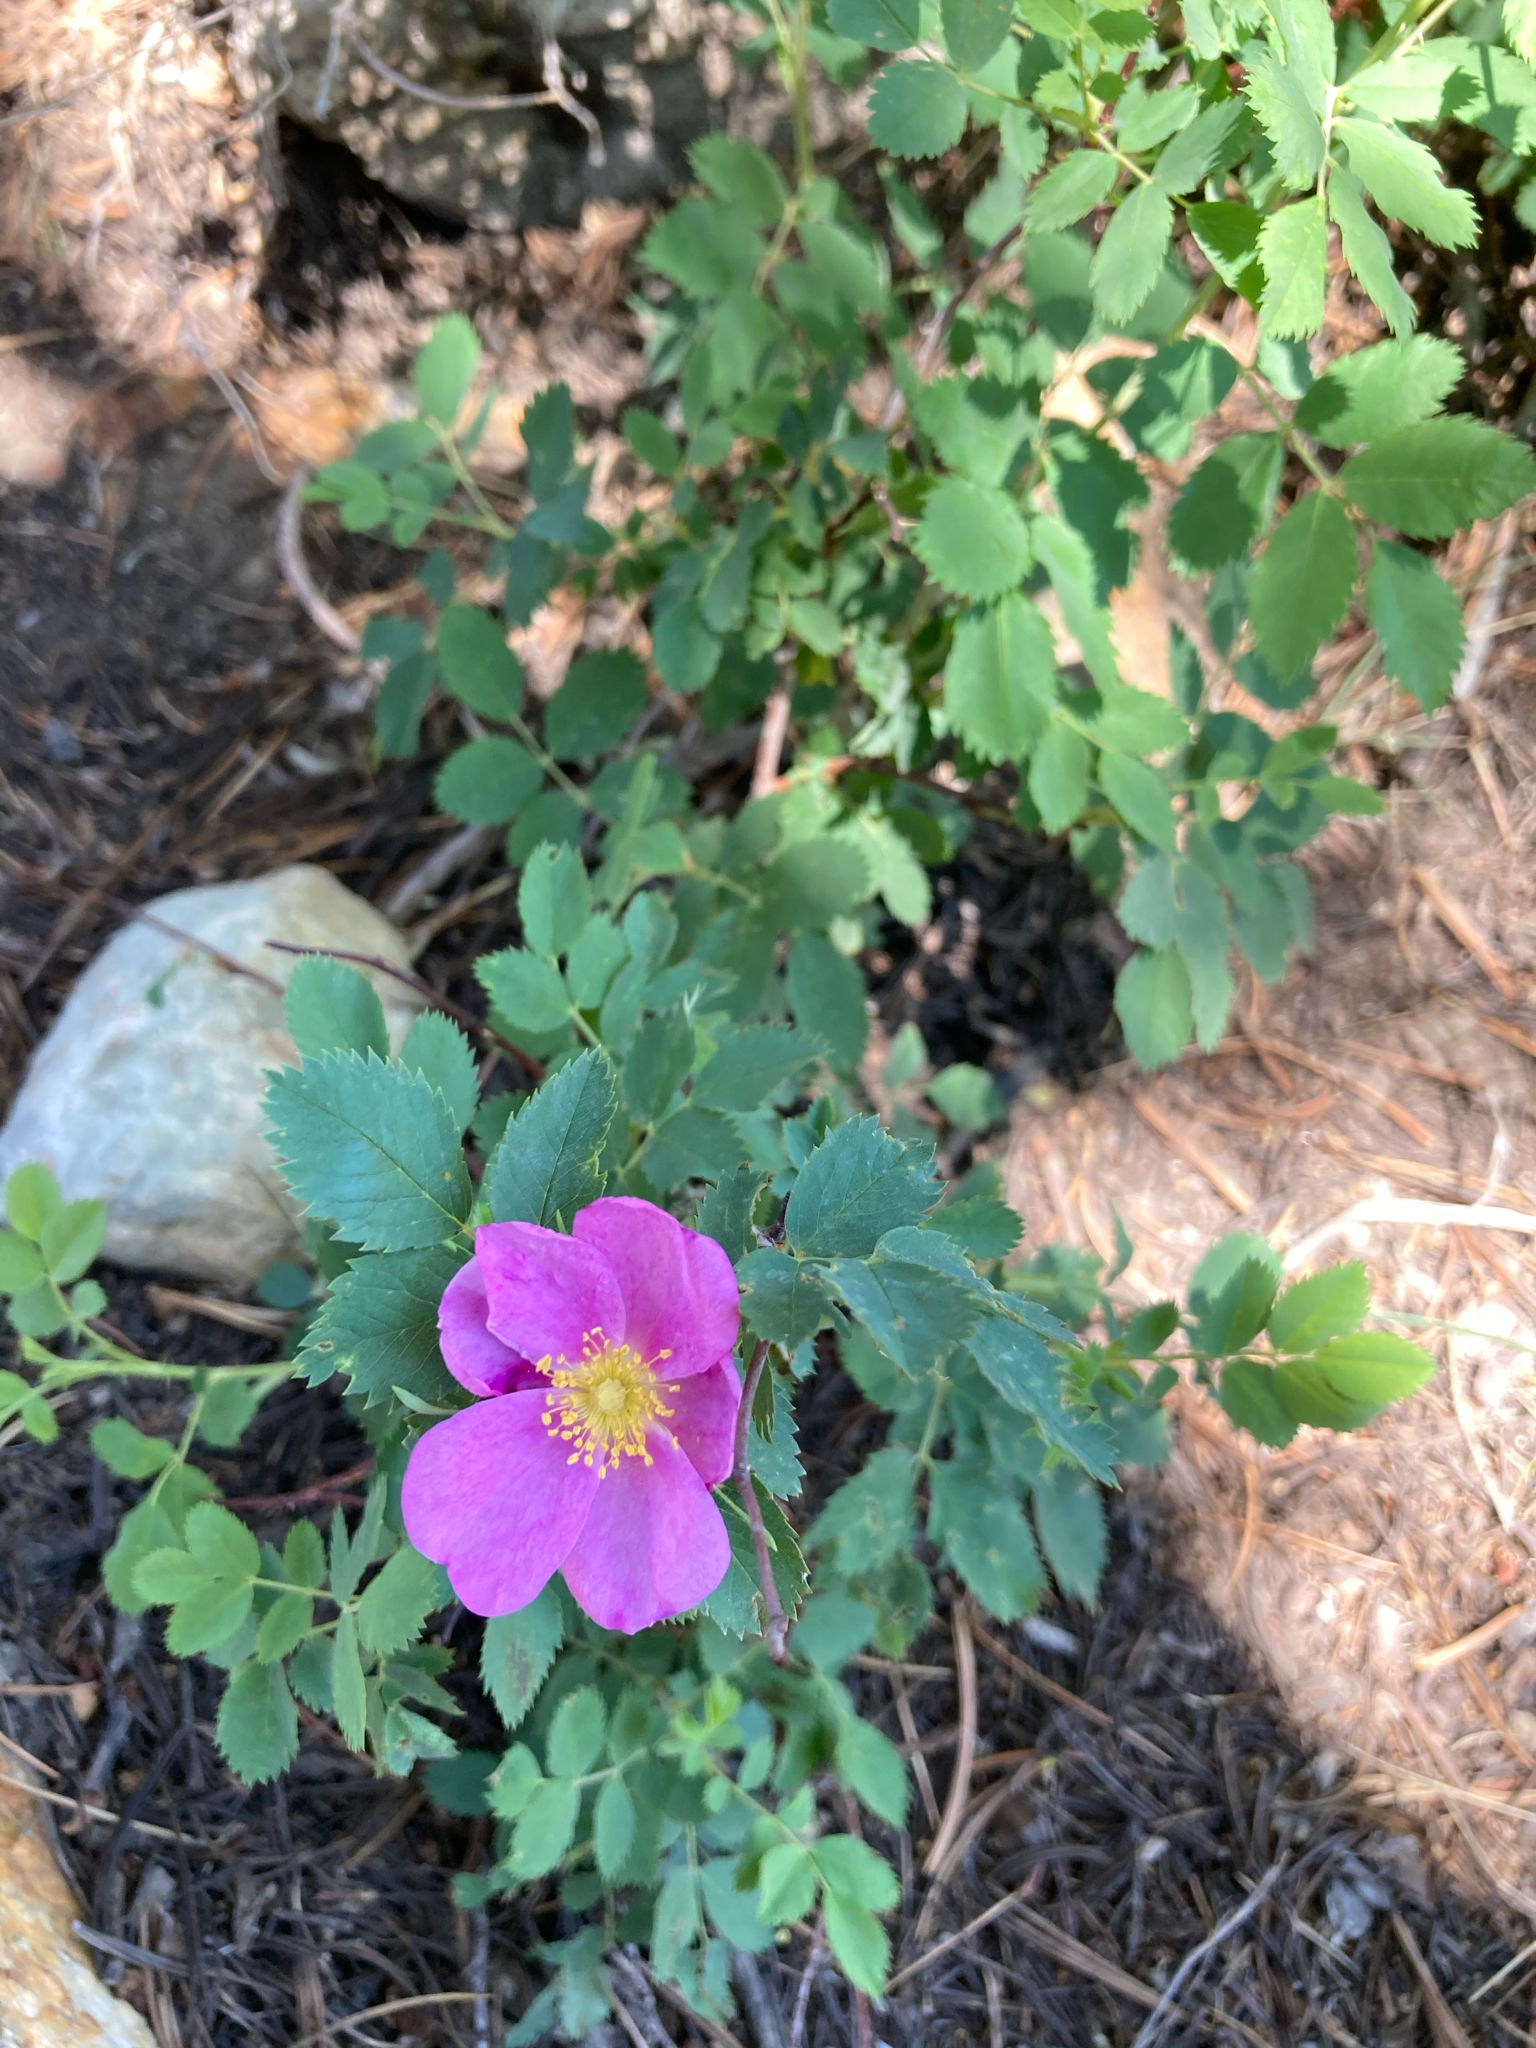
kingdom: Plantae
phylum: Tracheophyta
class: Magnoliopsida
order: Rosales
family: Rosaceae
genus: Rosa
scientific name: Rosa woodsii
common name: Woods's rose
